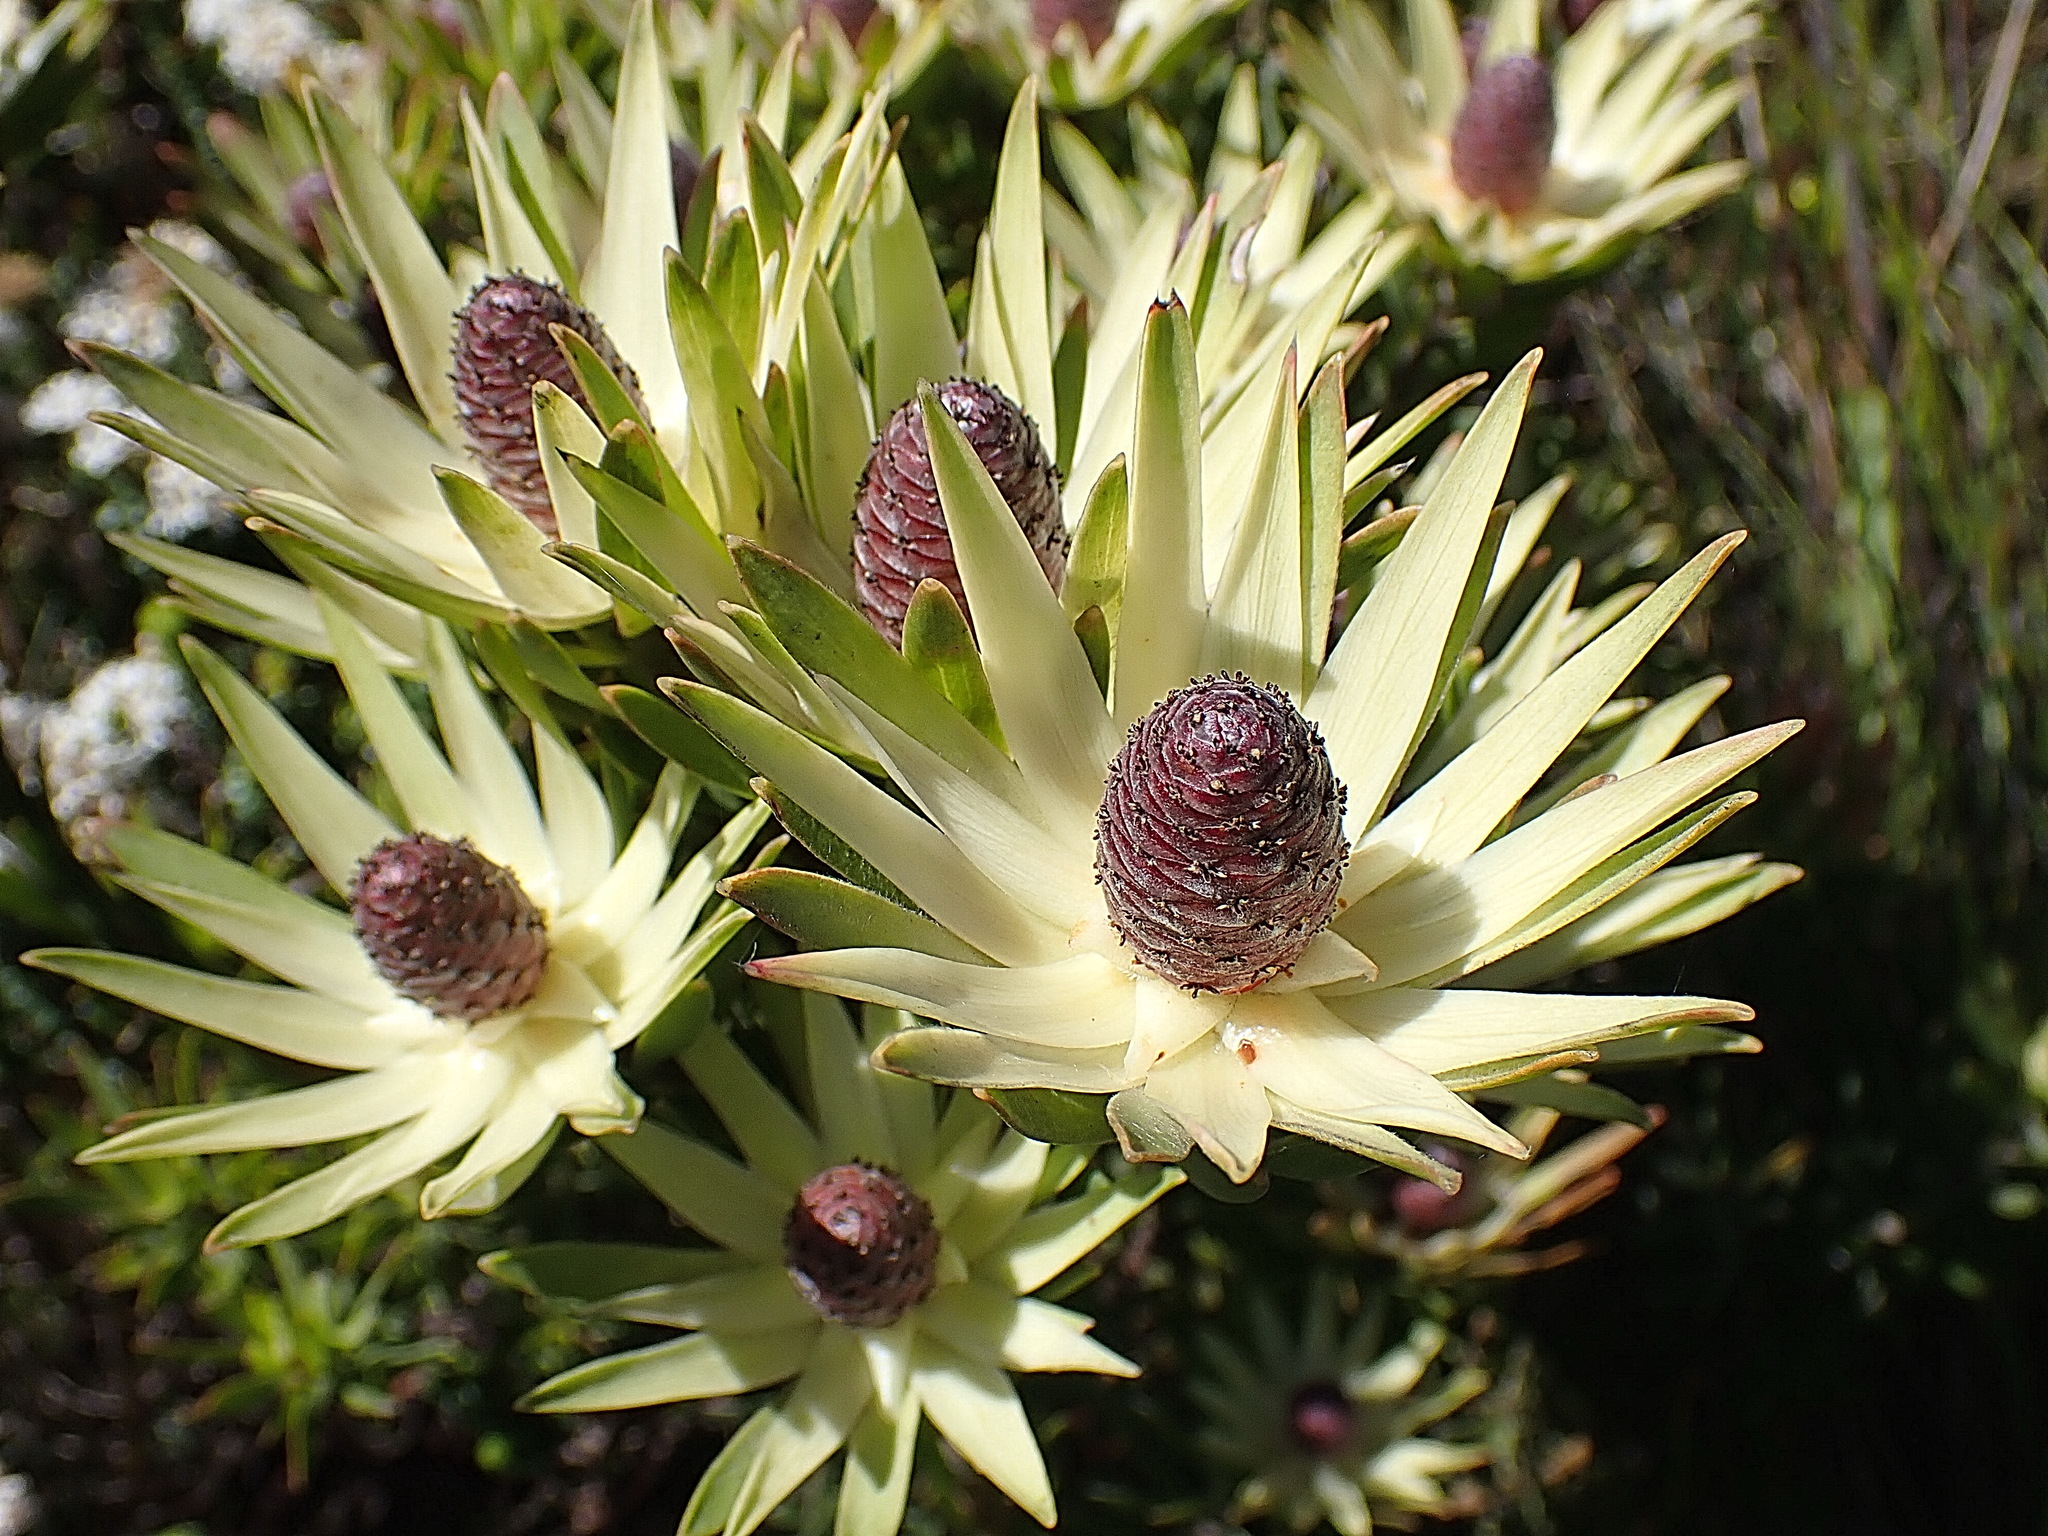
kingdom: Plantae
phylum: Tracheophyta
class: Magnoliopsida
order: Proteales
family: Proteaceae
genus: Leucadendron
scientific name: Leucadendron loeriense
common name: Loerie conebush
